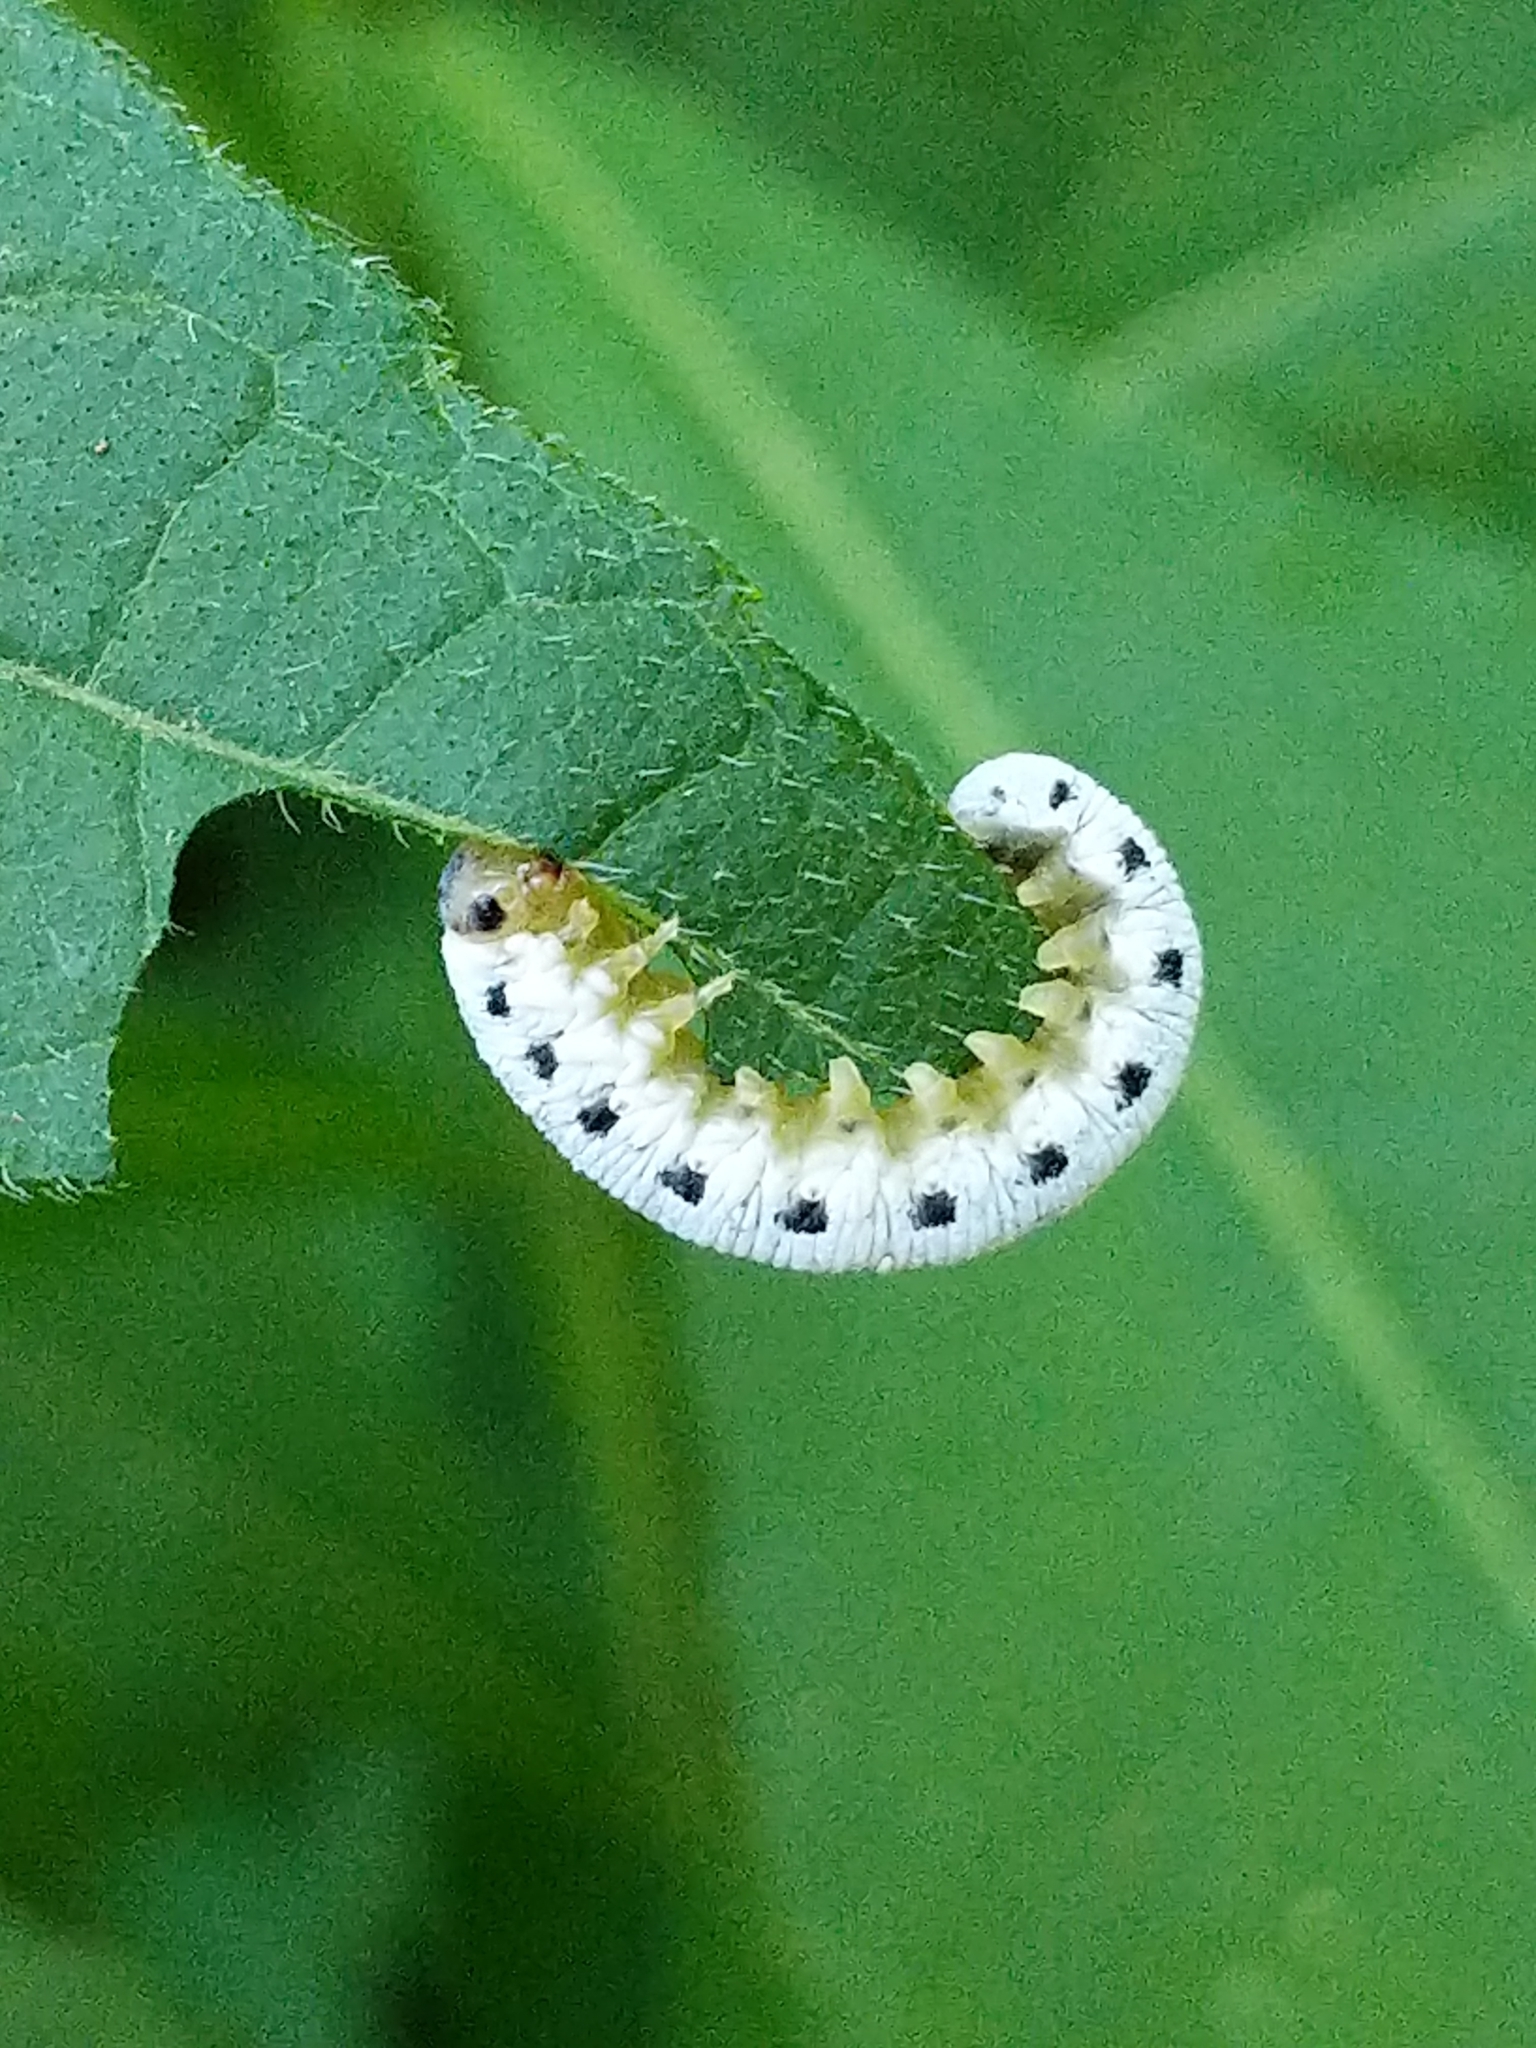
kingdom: Animalia
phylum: Arthropoda
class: Insecta
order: Hymenoptera
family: Tenthredinidae
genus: Macrophya
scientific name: Macrophya
